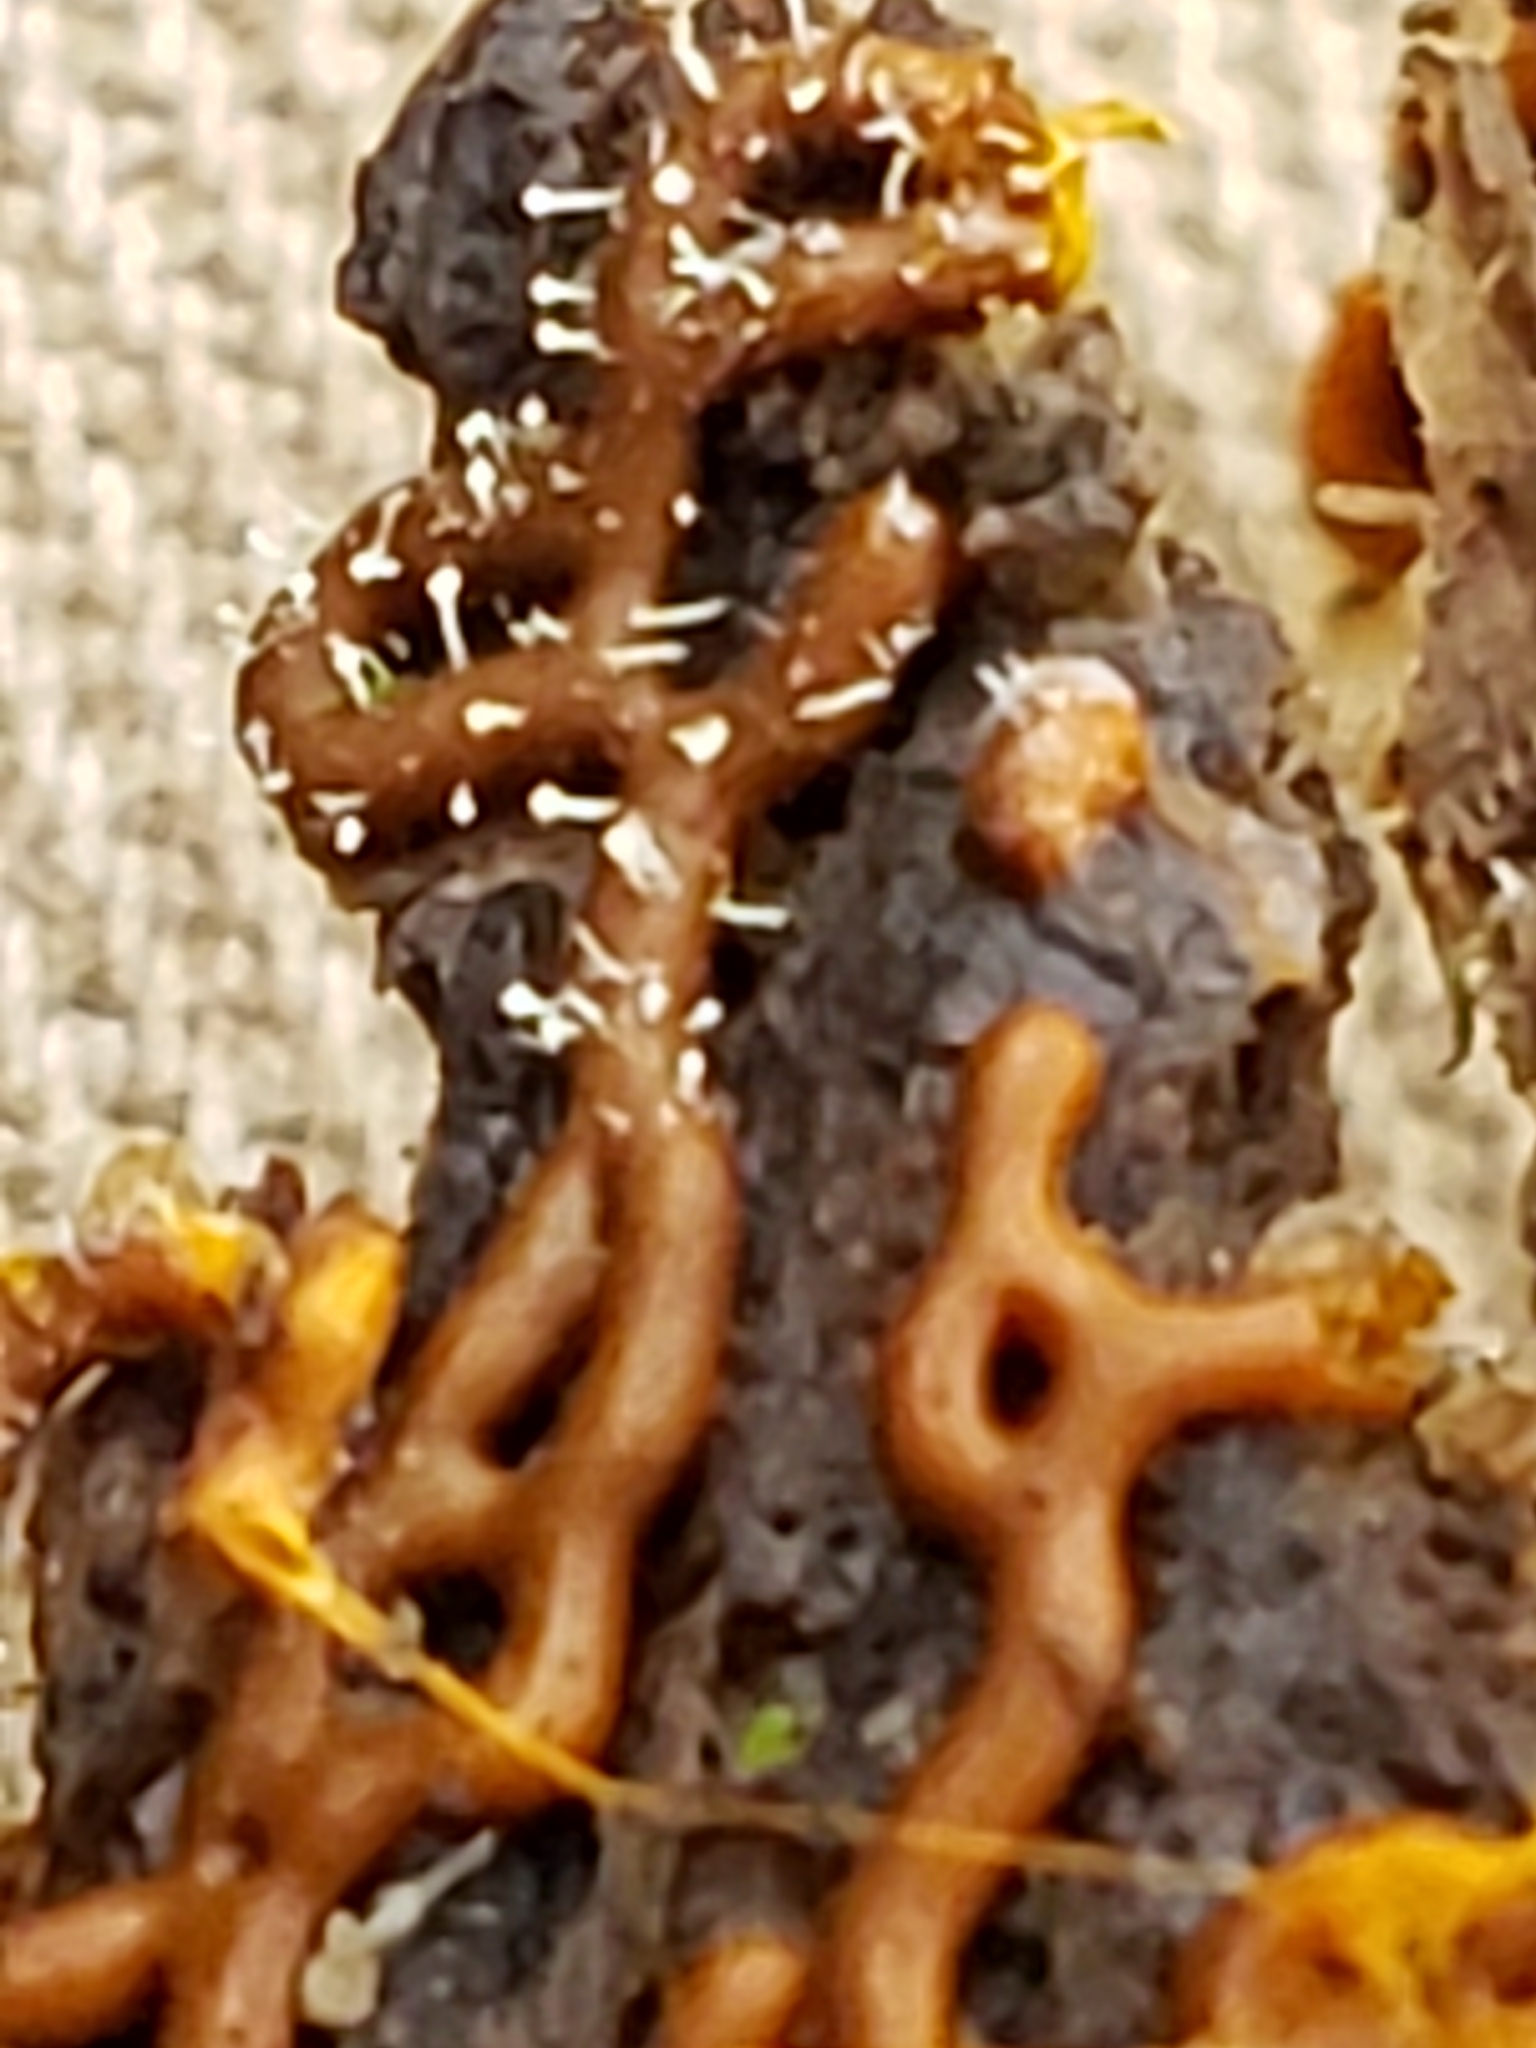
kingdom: Fungi
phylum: Ascomycota
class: Sordariomycetes
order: Hypocreales
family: Ophiocordycipitaceae
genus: Polycephalomyces
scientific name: Polycephalomyces tomentosus
